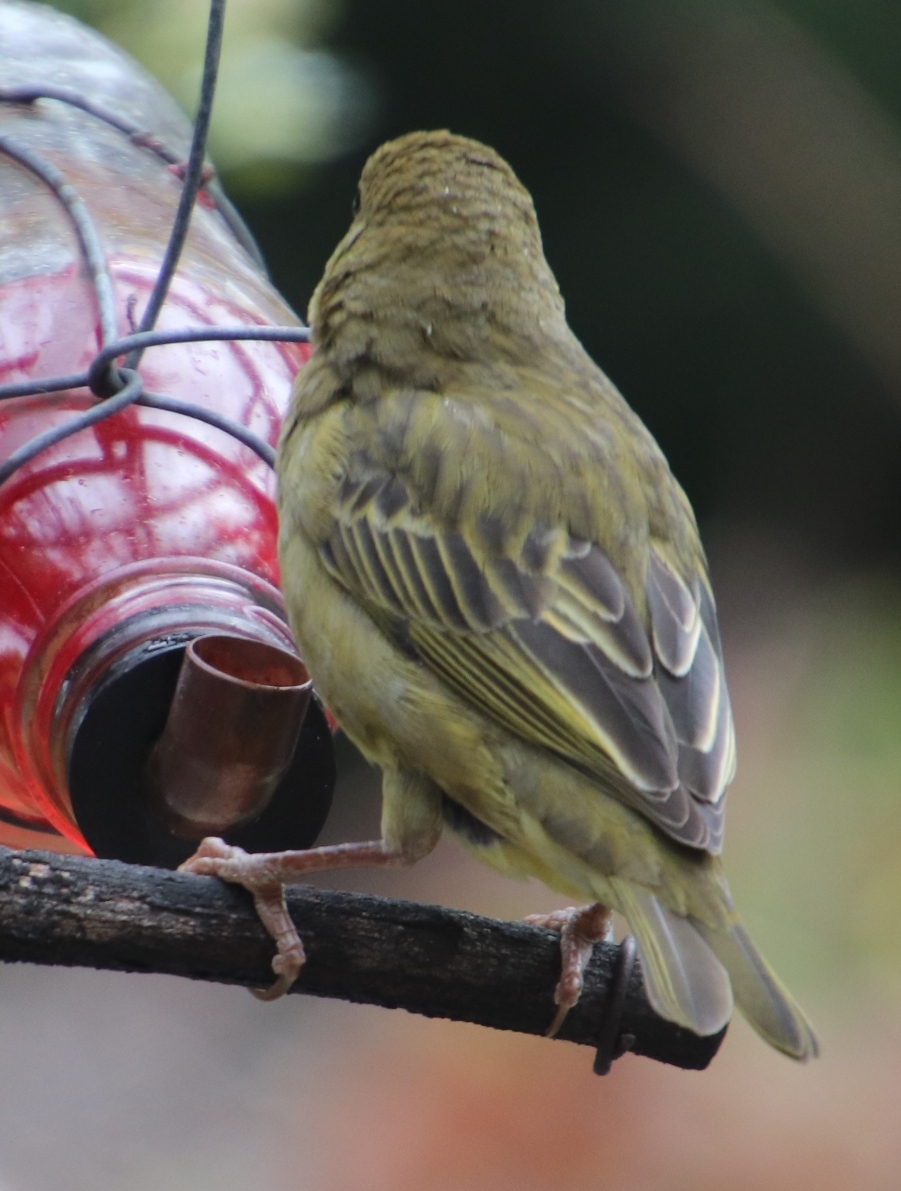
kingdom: Animalia
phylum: Chordata
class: Aves
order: Passeriformes
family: Ploceidae
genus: Ploceus
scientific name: Ploceus capensis
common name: Cape weaver
